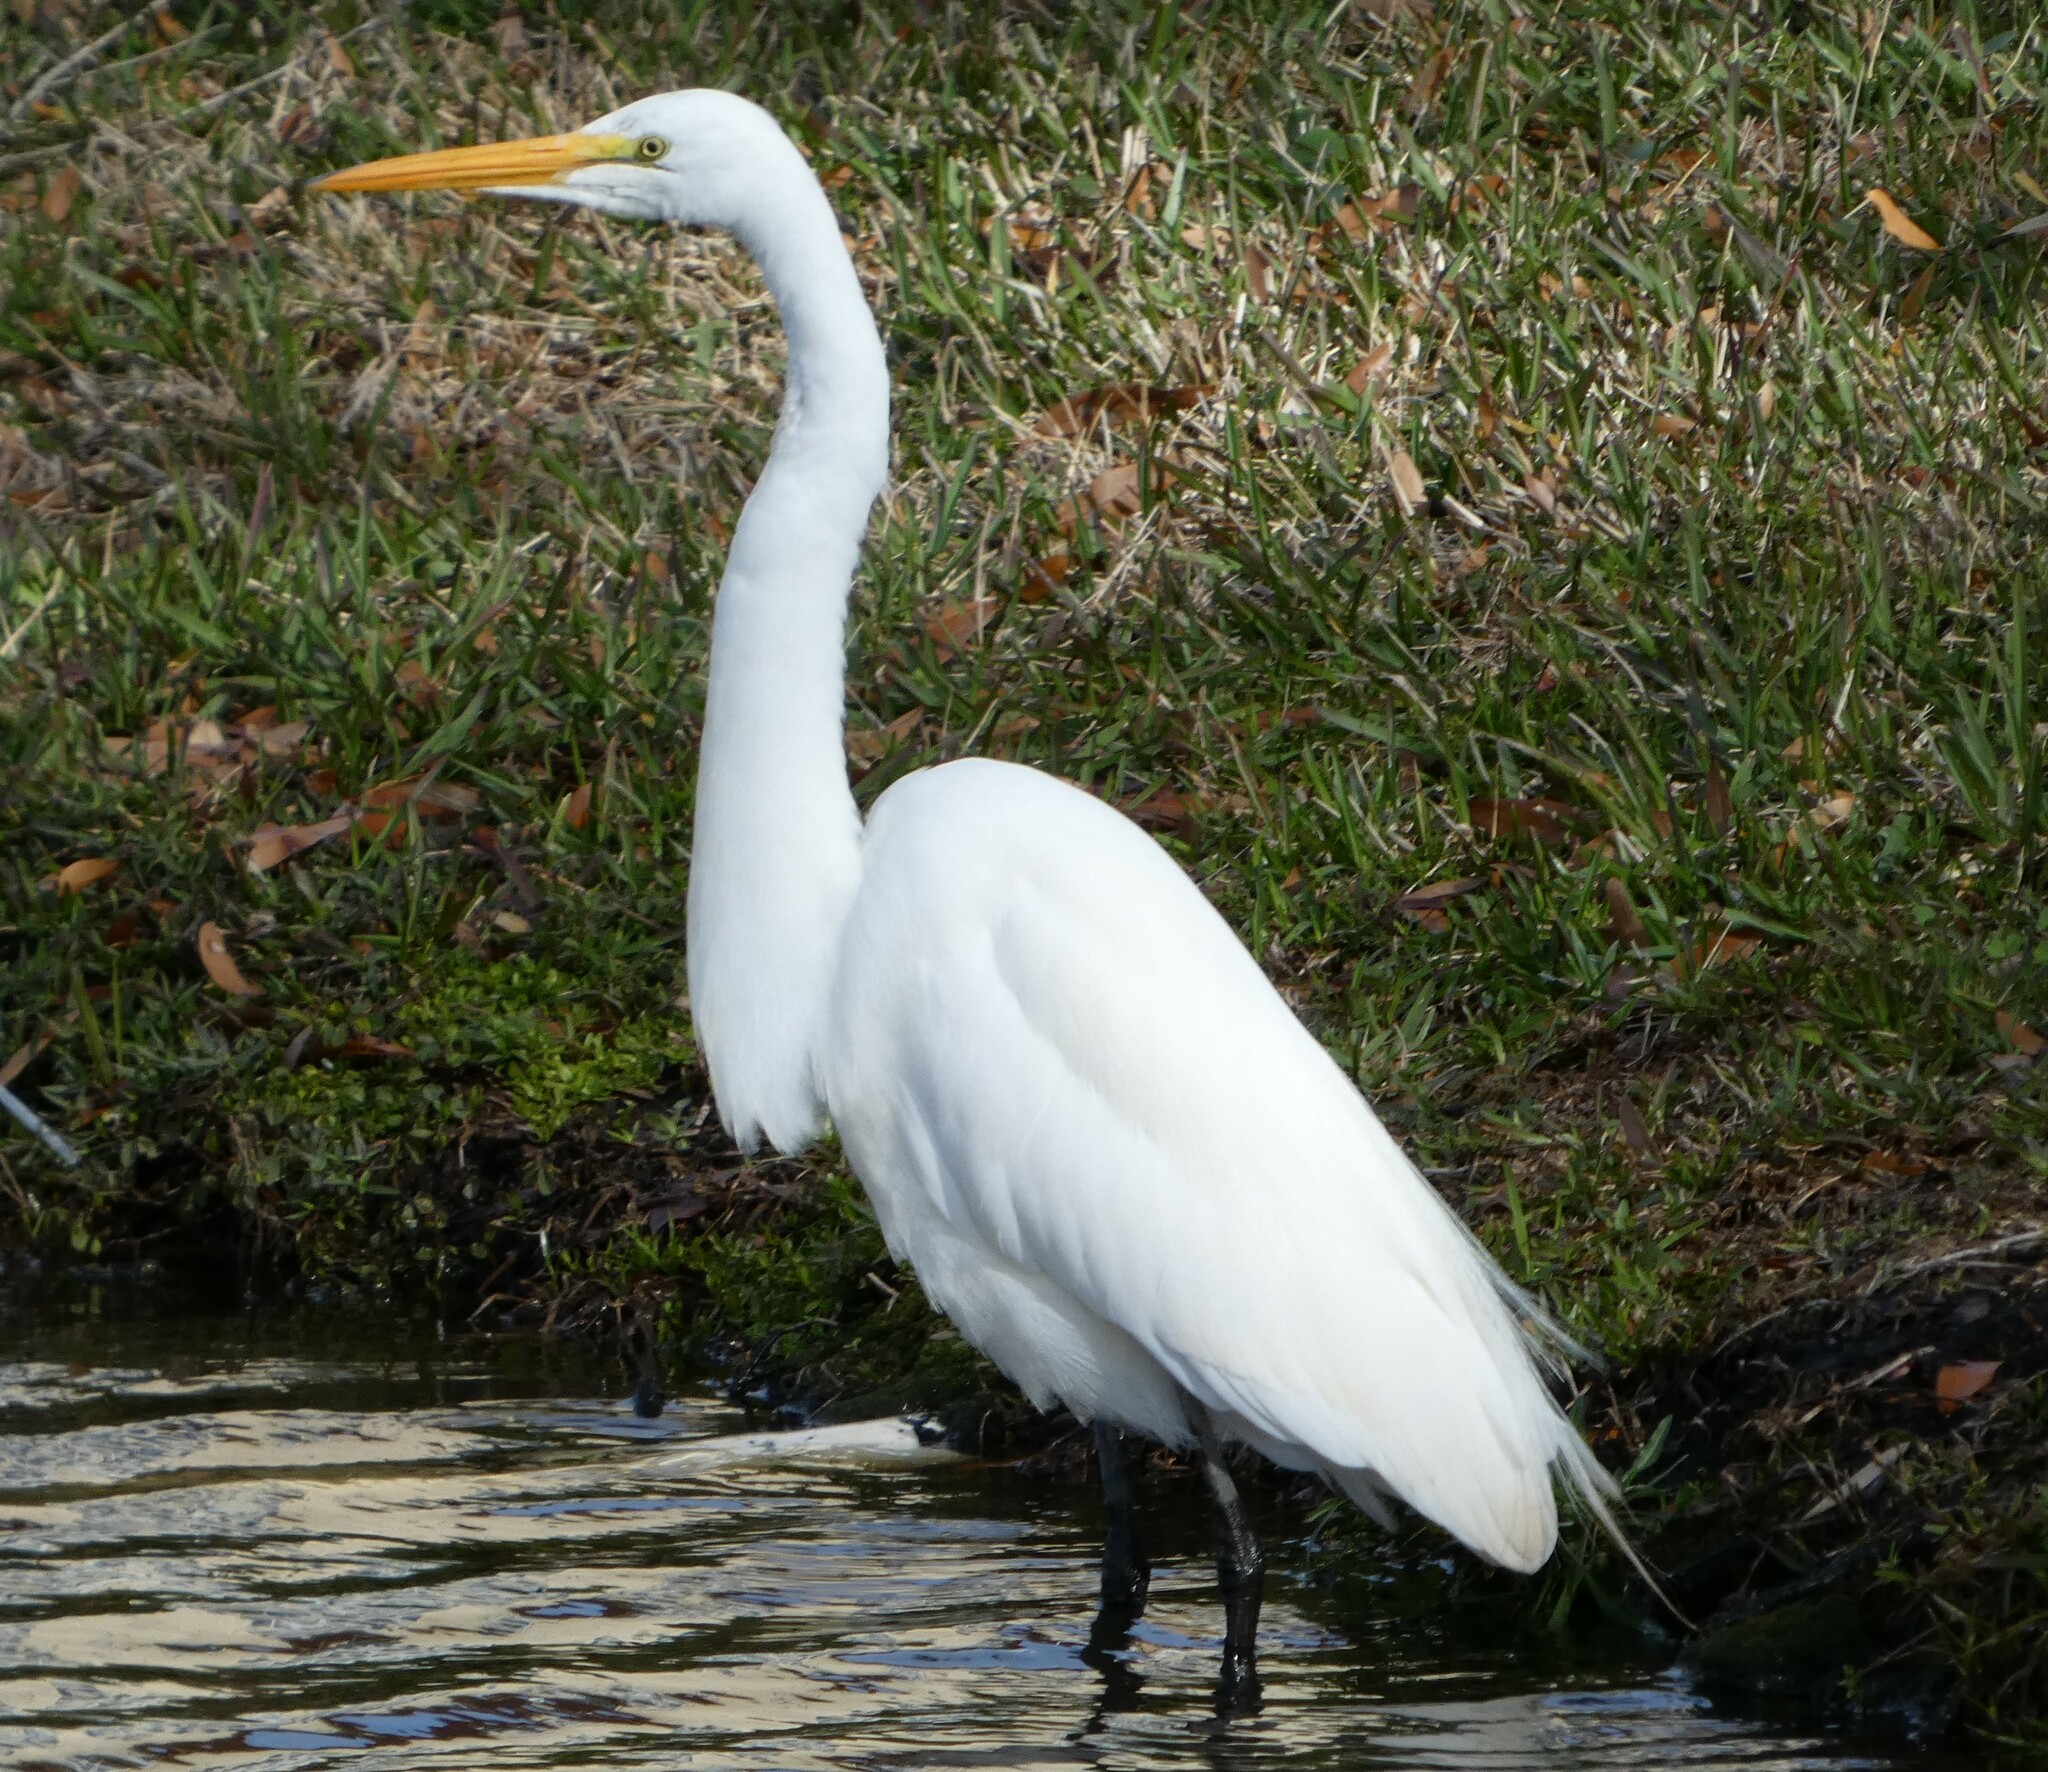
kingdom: Animalia
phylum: Chordata
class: Aves
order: Pelecaniformes
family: Ardeidae
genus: Ardea
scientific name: Ardea alba
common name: Great egret
